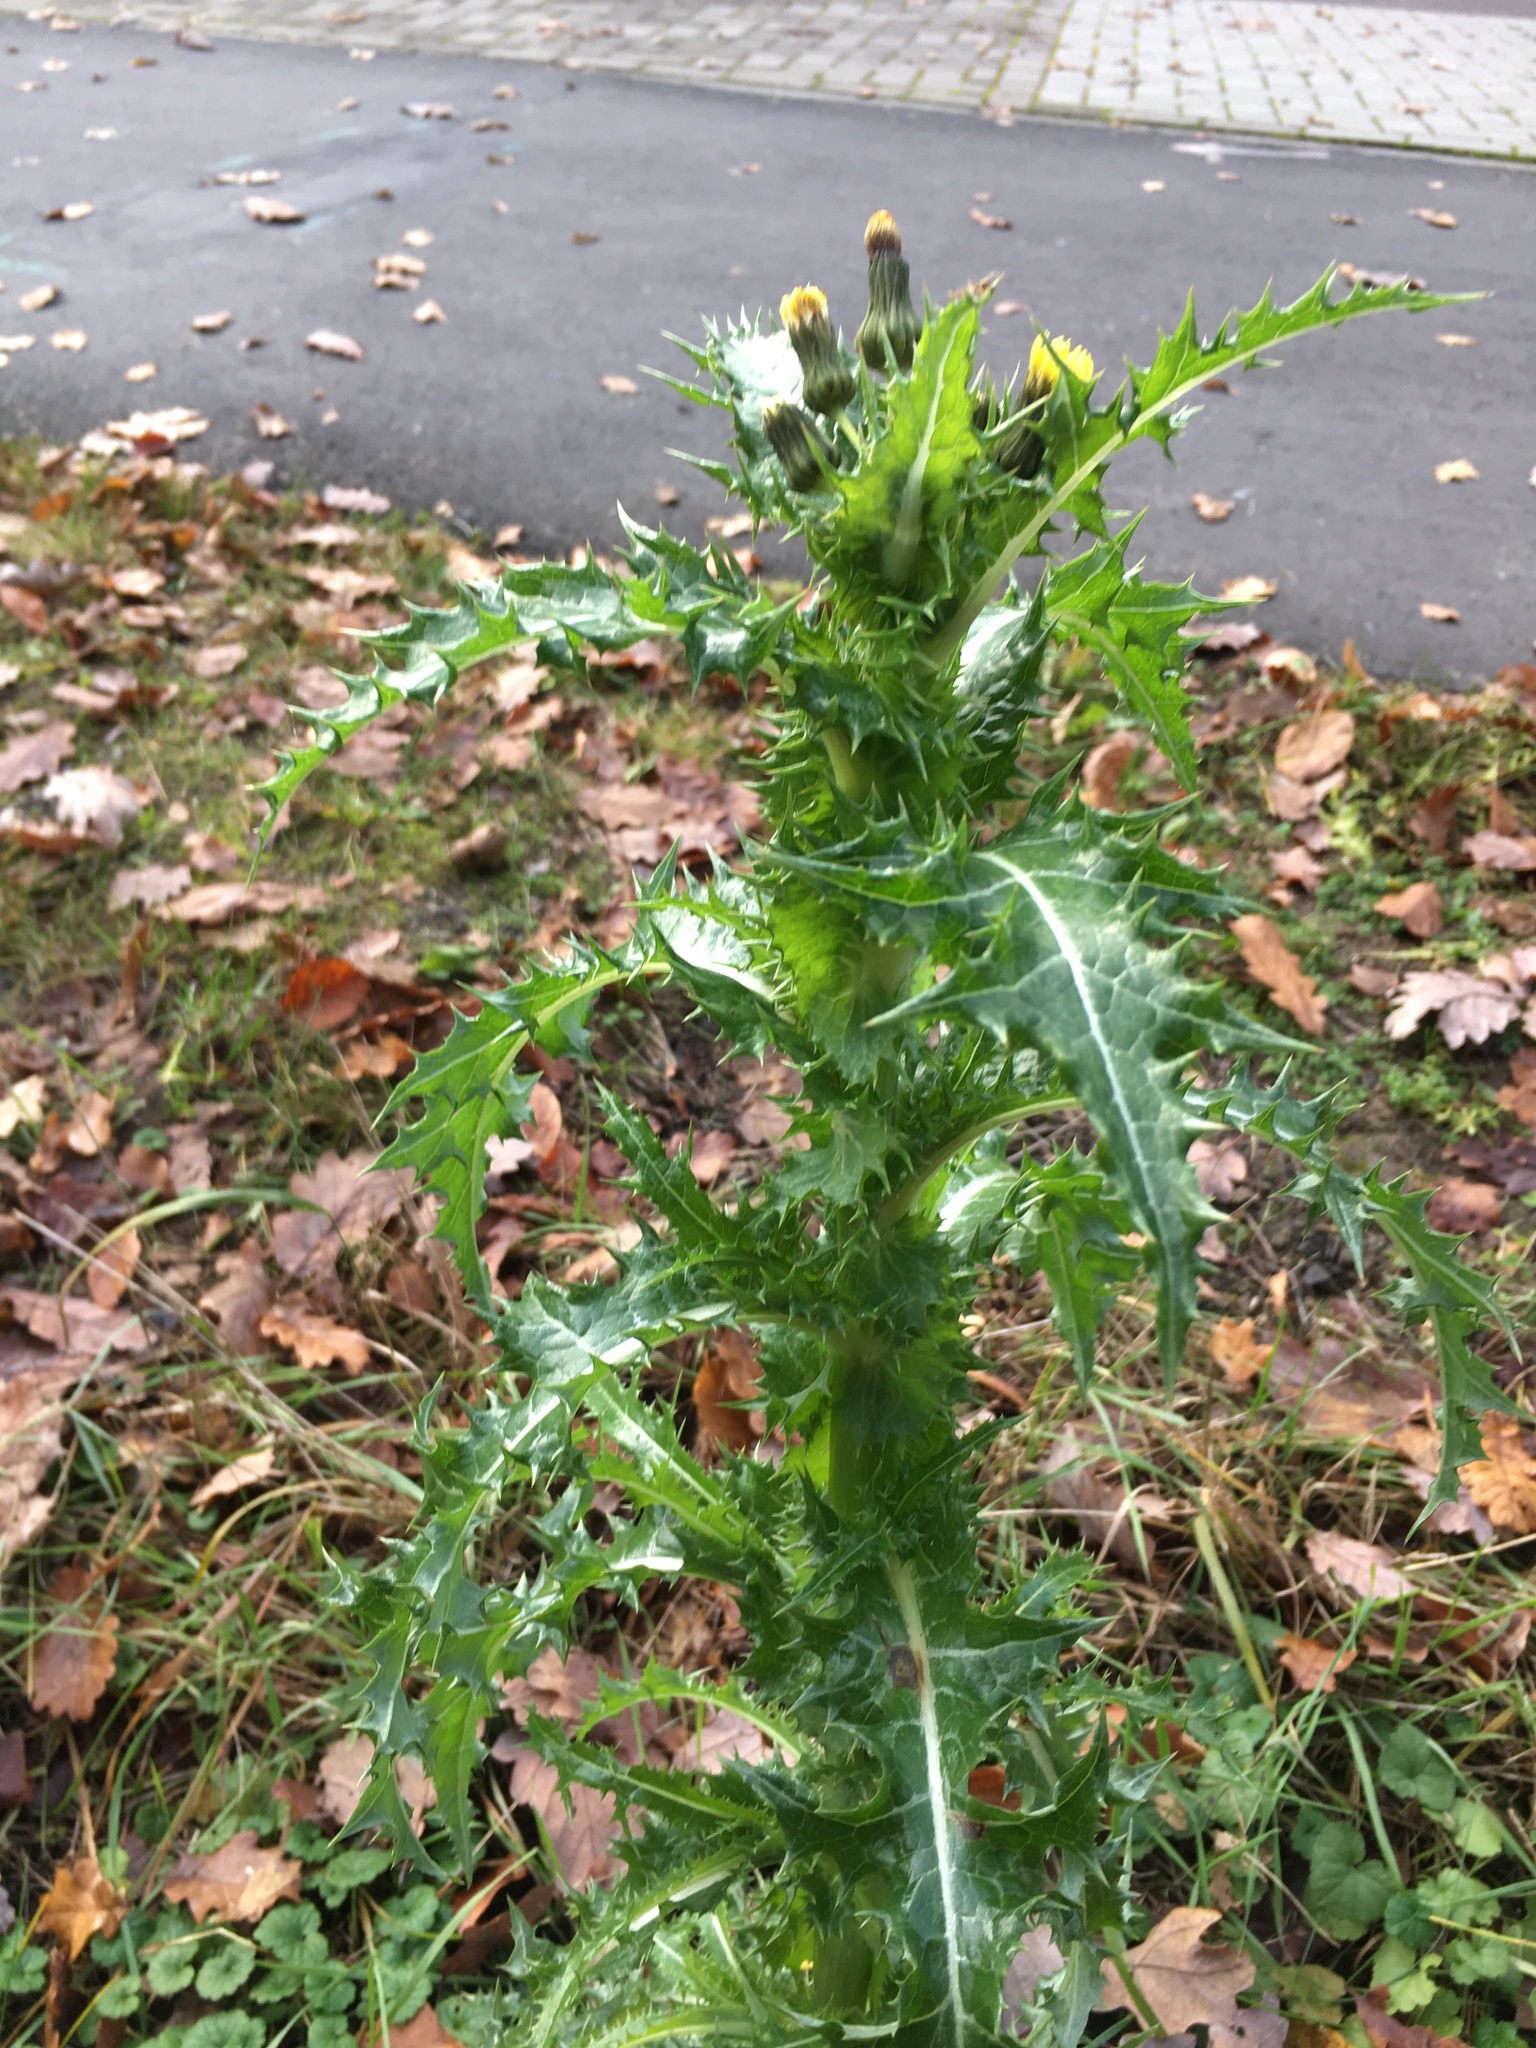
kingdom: Plantae
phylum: Tracheophyta
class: Magnoliopsida
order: Asterales
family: Asteraceae
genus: Sonchus
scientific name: Sonchus asper
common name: Prickly sow-thistle
